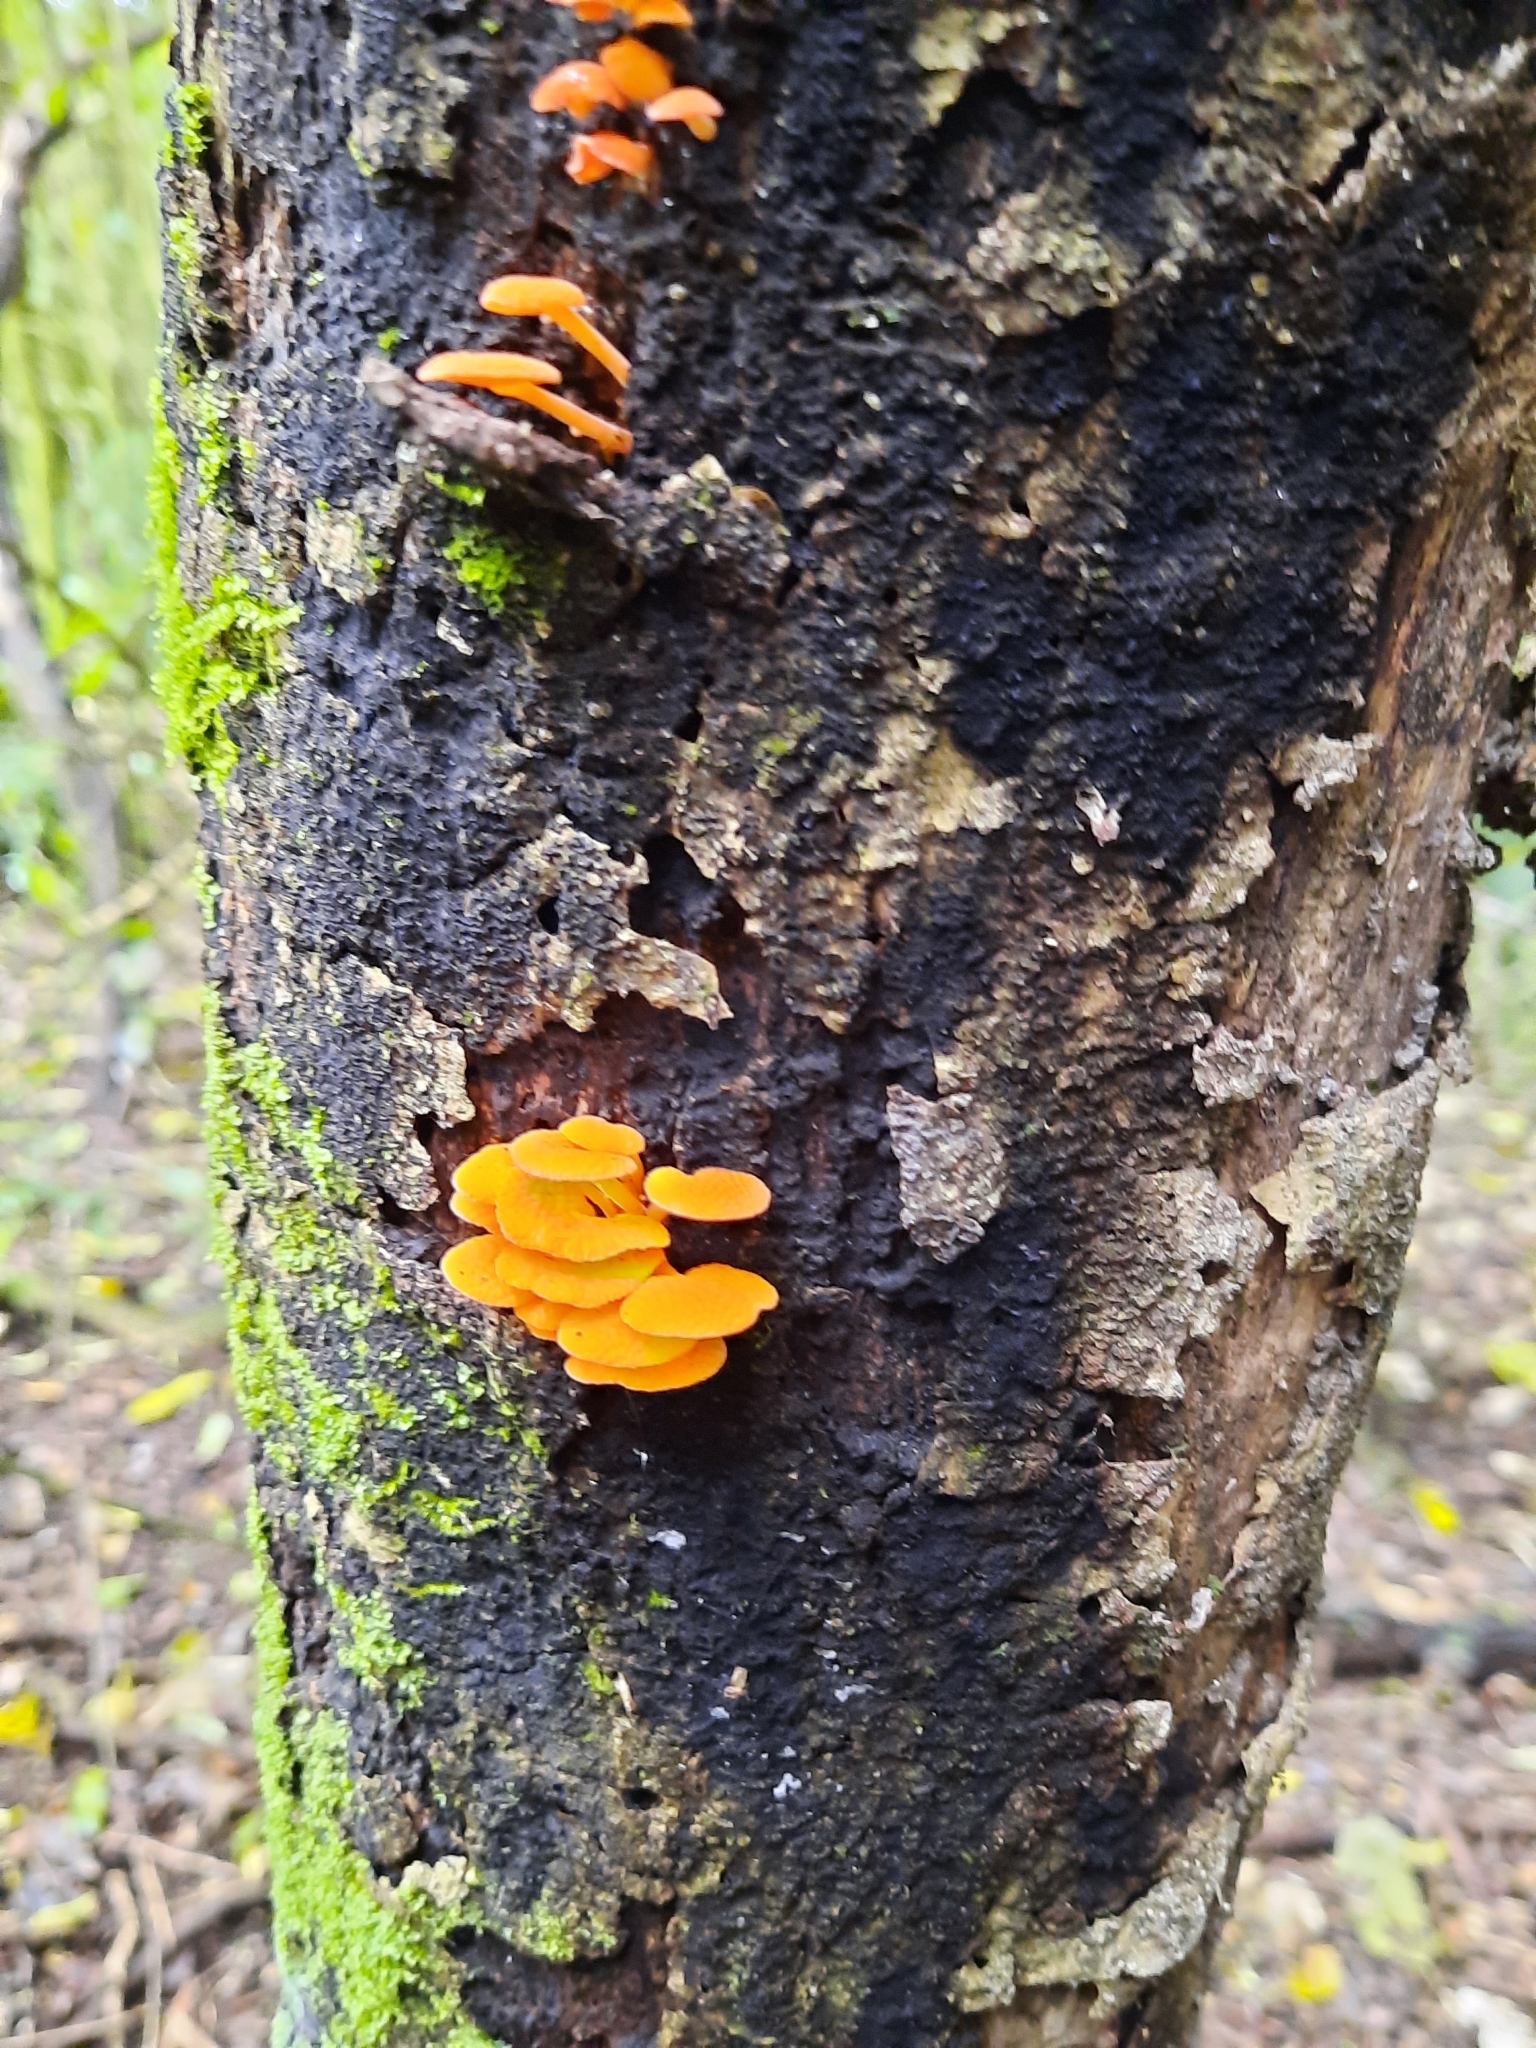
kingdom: Fungi
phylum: Basidiomycota
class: Agaricomycetes
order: Agaricales
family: Mycenaceae
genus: Favolaschia
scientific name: Favolaschia claudopus
